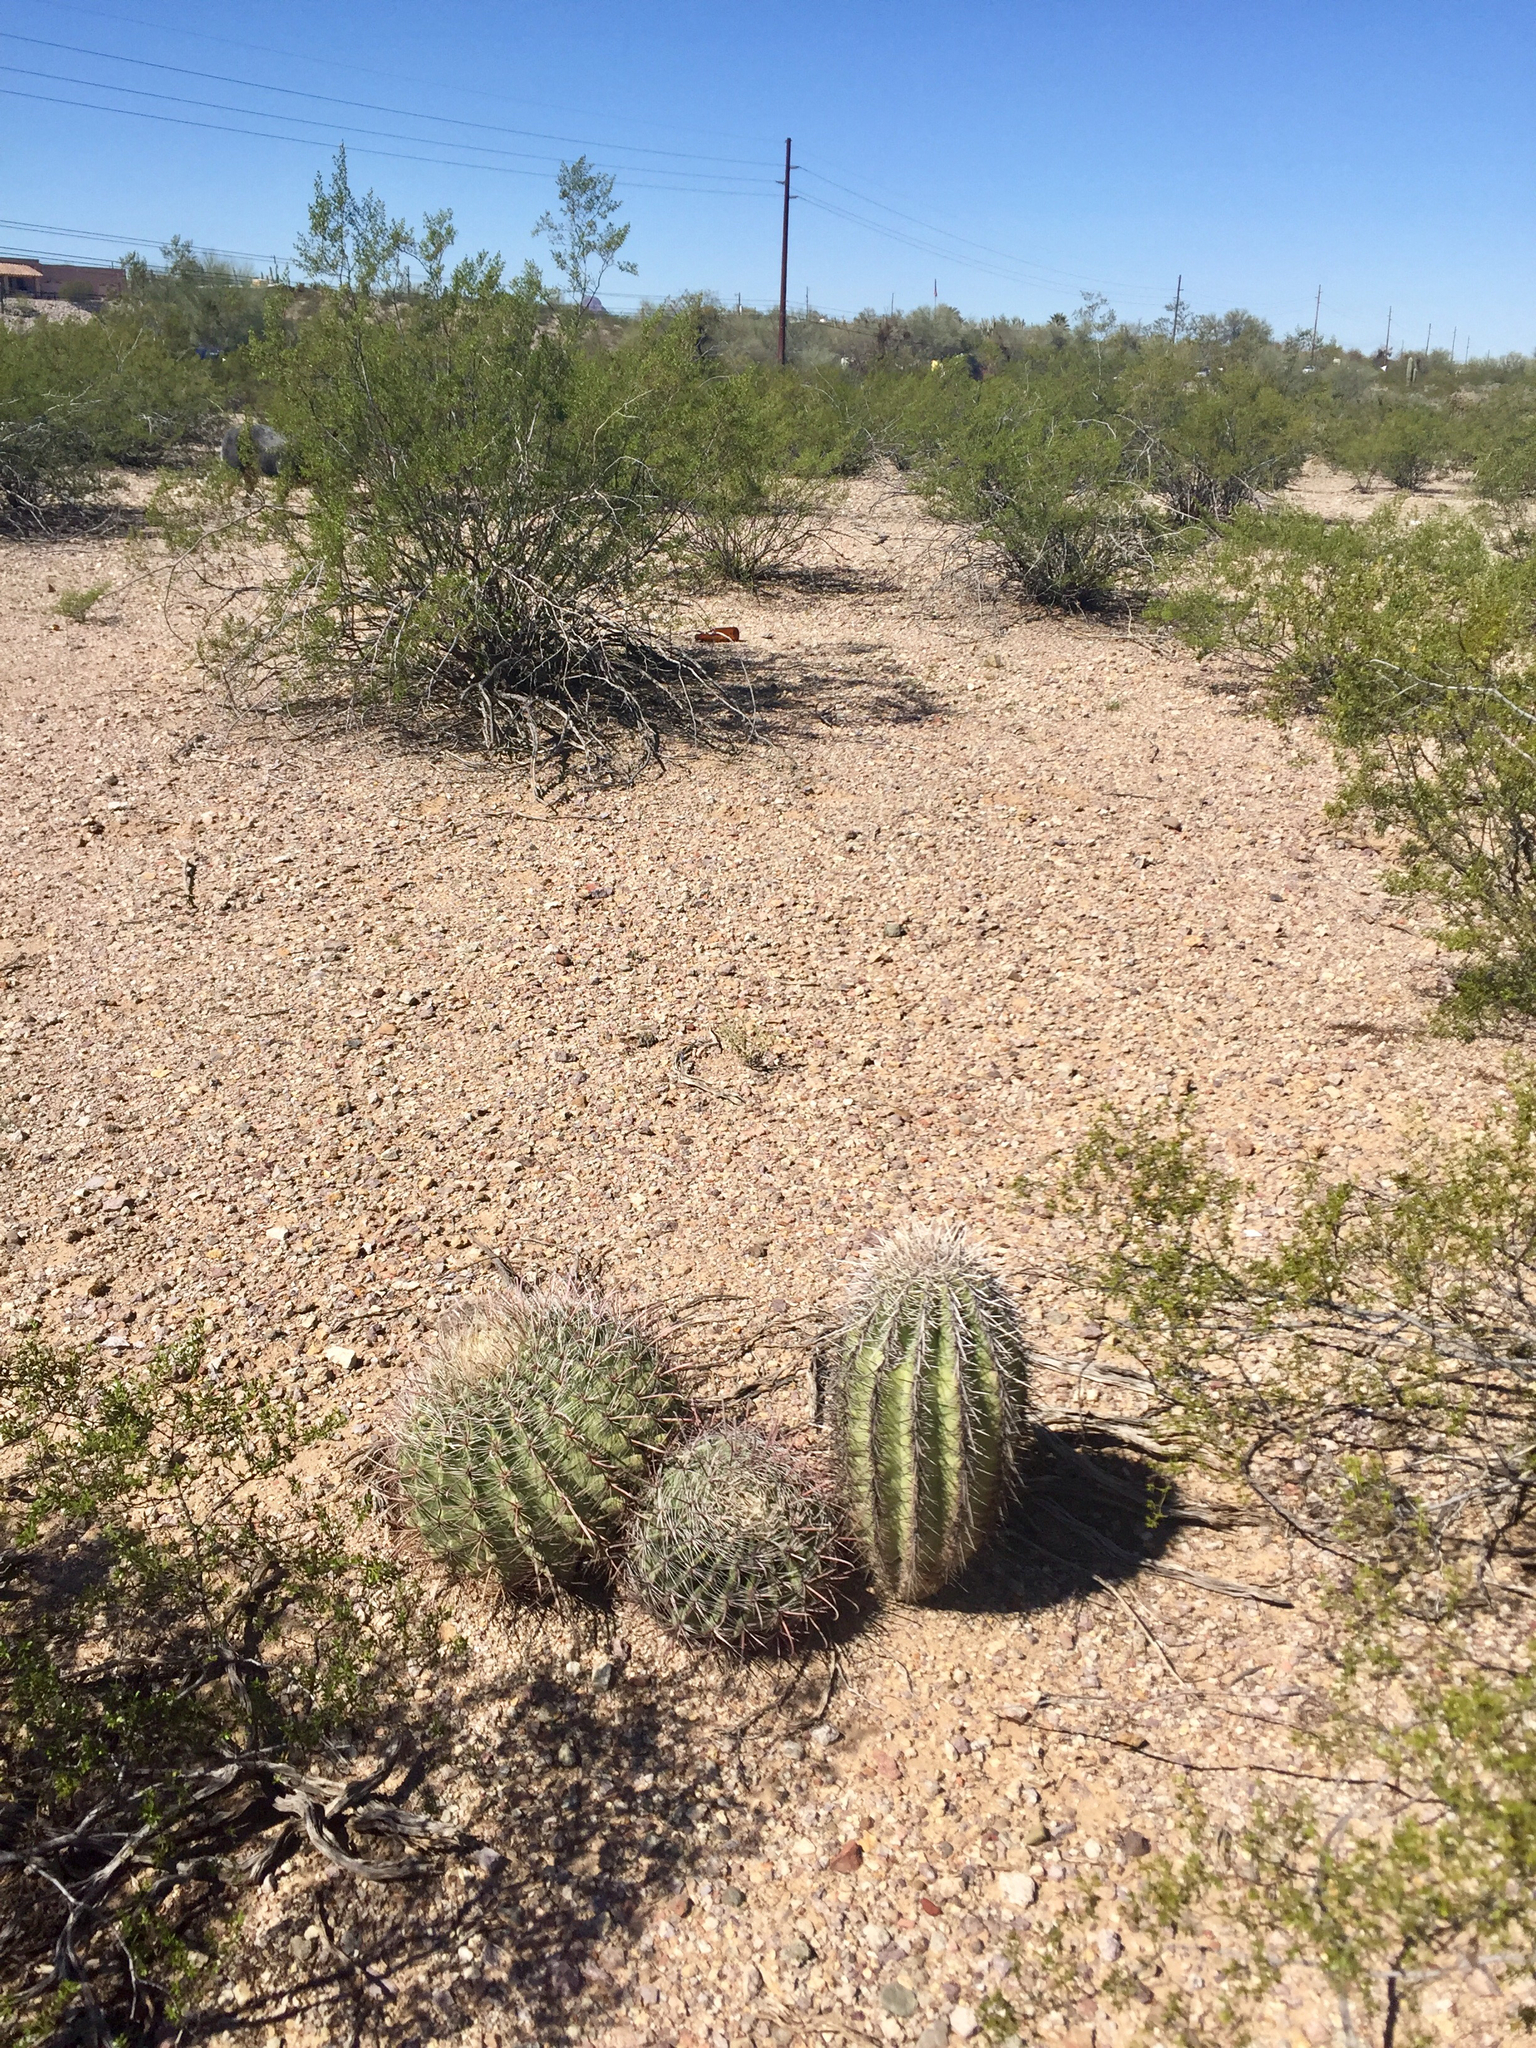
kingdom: Plantae
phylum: Tracheophyta
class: Magnoliopsida
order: Caryophyllales
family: Cactaceae
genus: Carnegiea
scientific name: Carnegiea gigantea
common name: Saguaro
